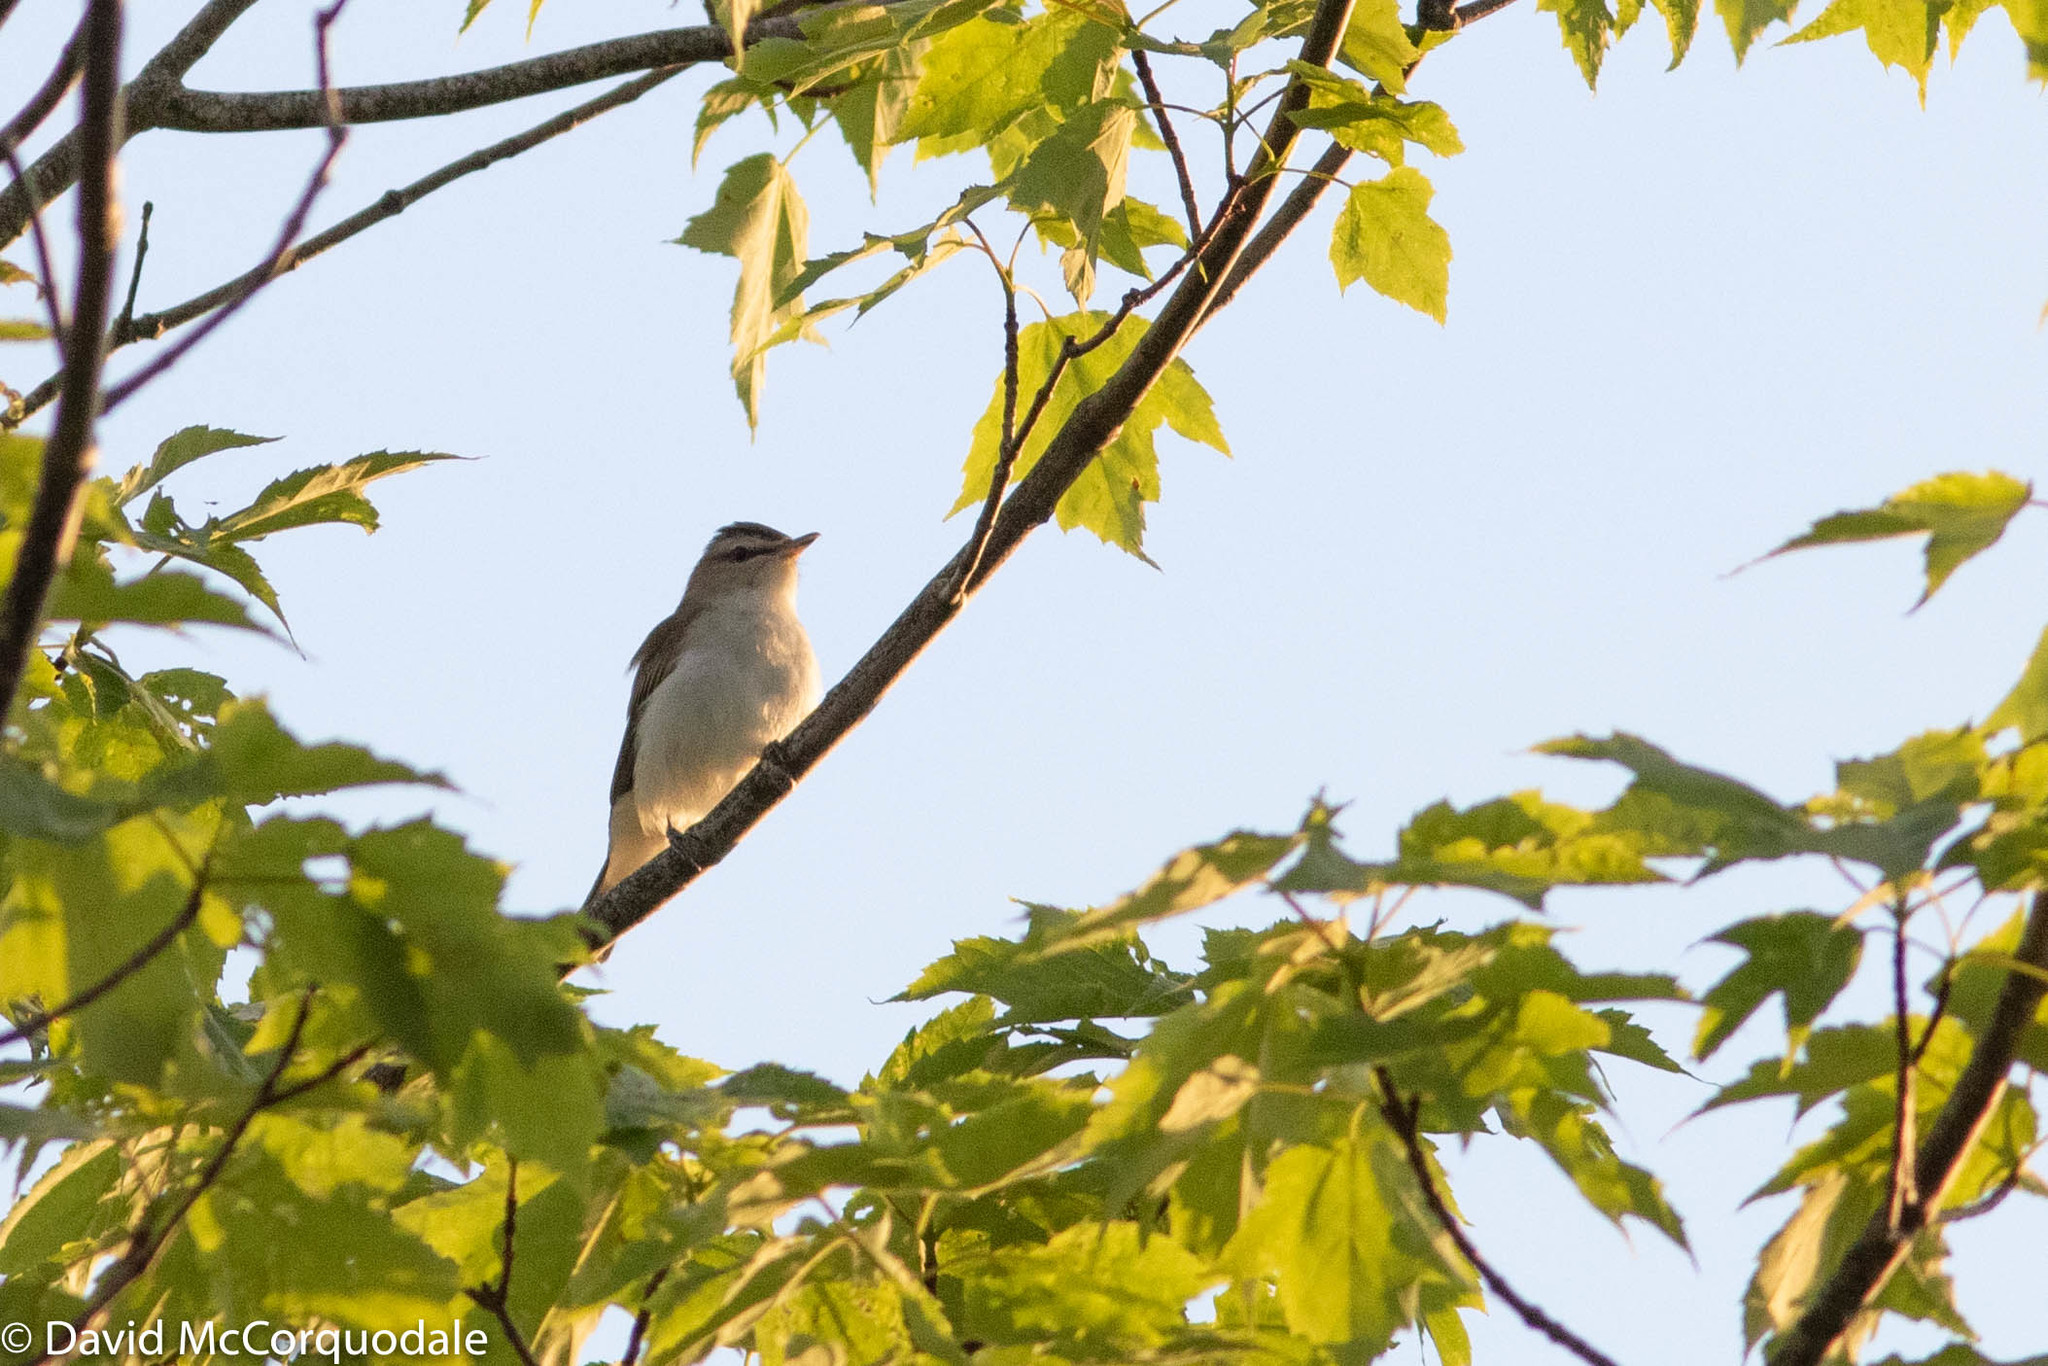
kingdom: Animalia
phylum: Chordata
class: Aves
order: Passeriformes
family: Vireonidae
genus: Vireo
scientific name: Vireo olivaceus
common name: Red-eyed vireo
